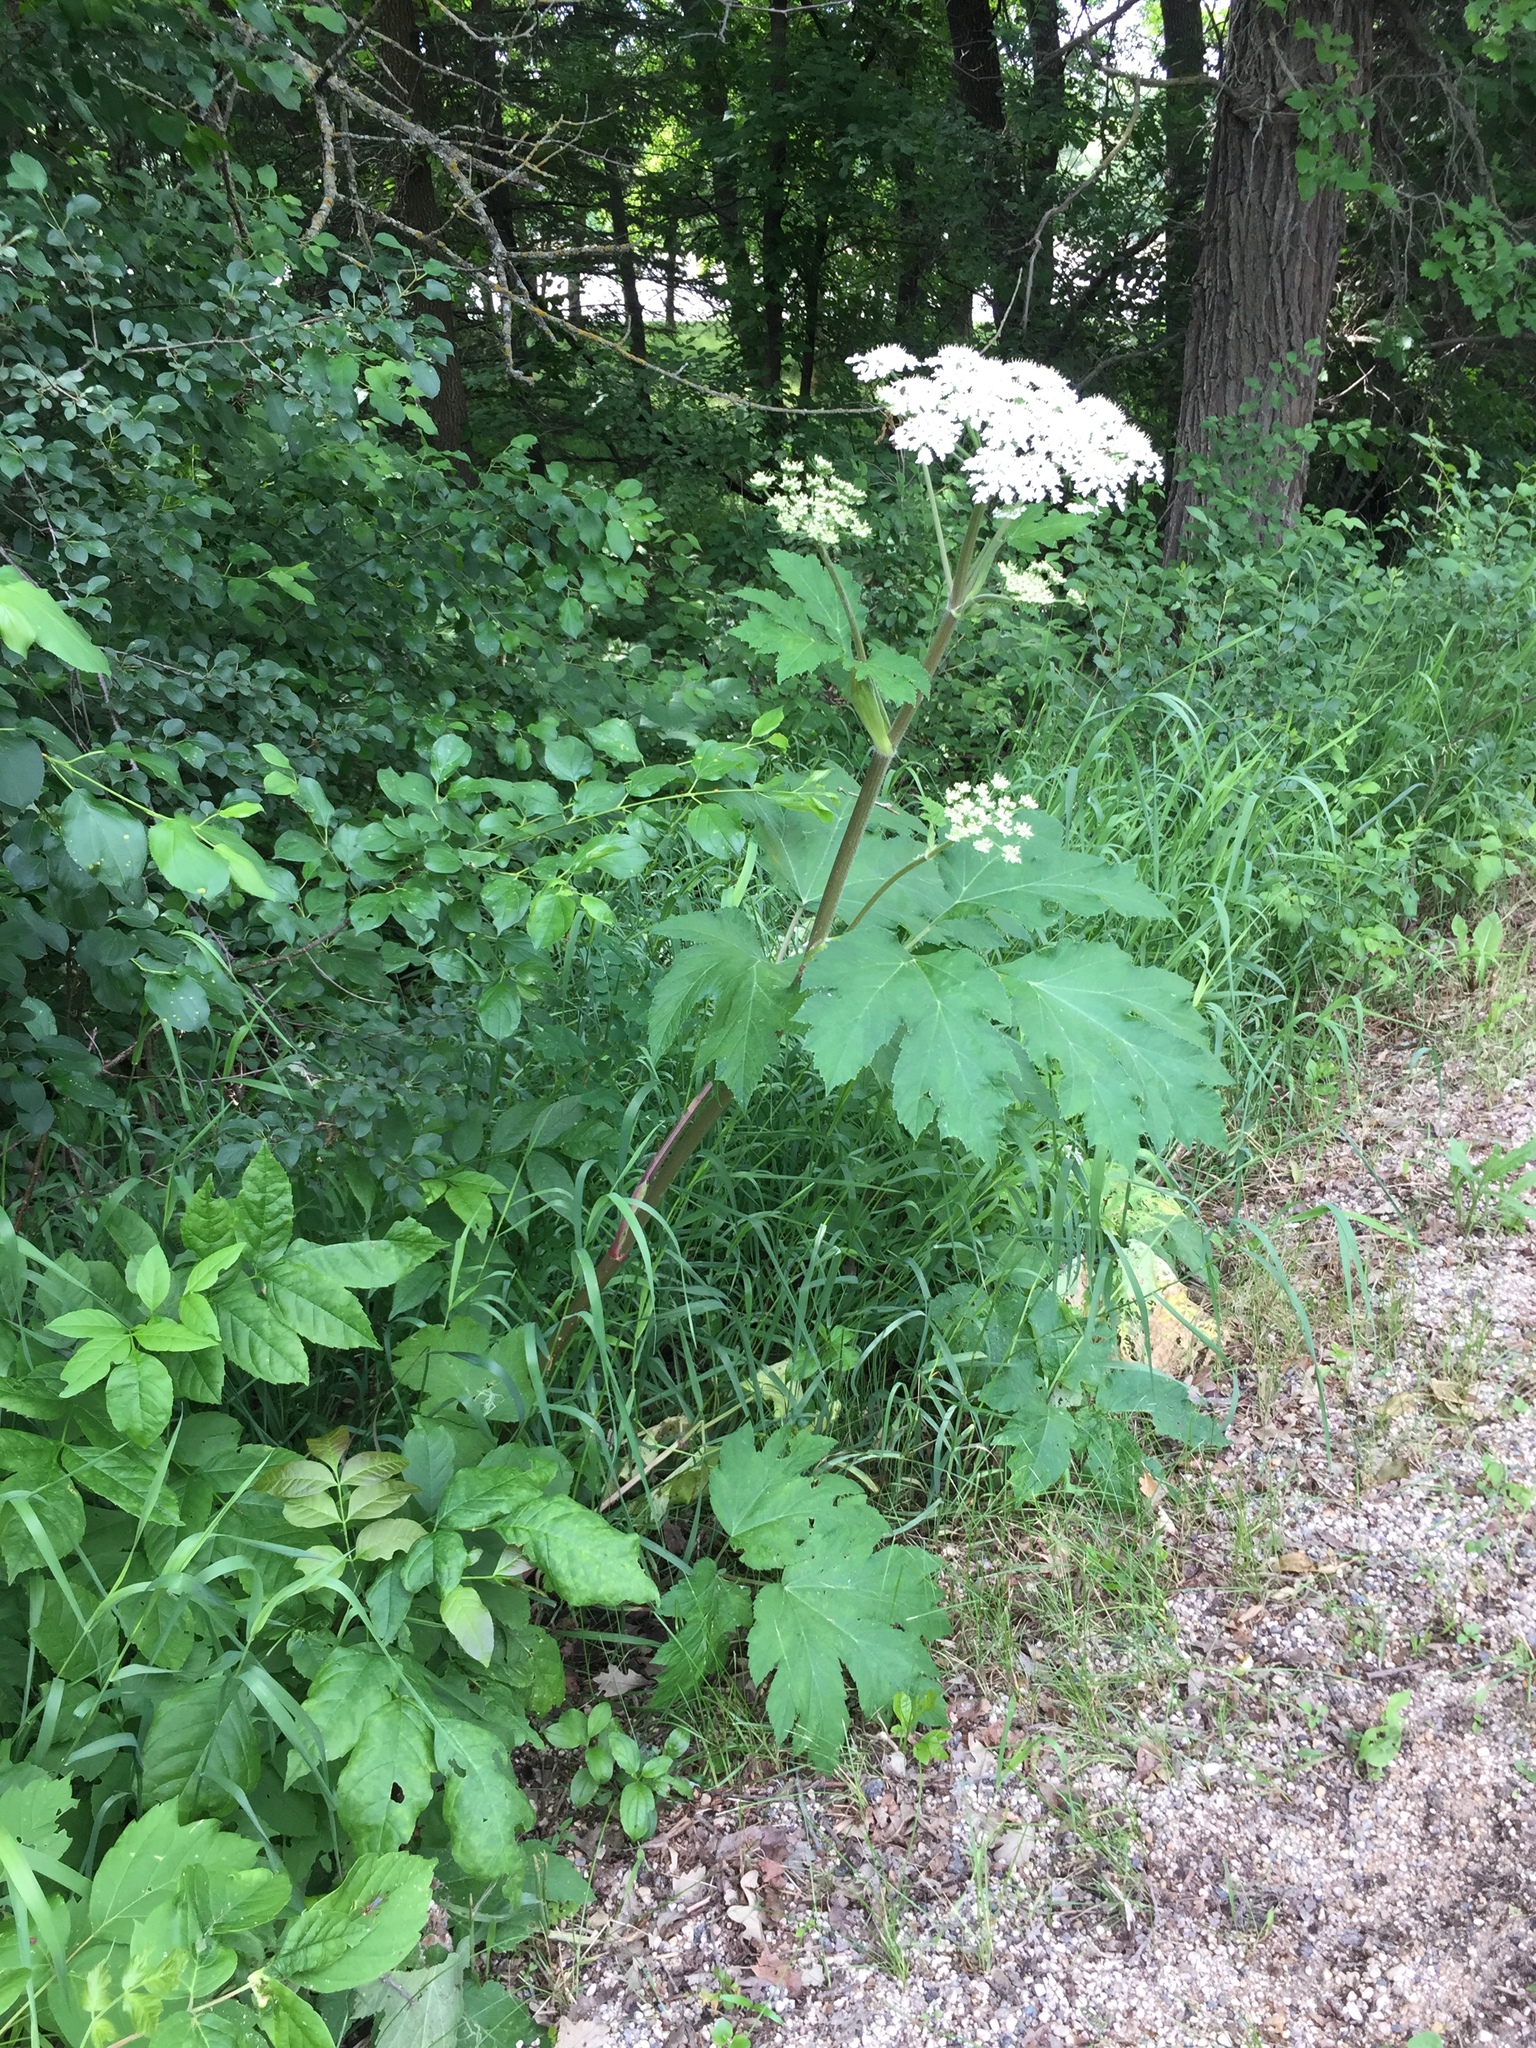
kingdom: Plantae
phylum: Tracheophyta
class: Magnoliopsida
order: Apiales
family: Apiaceae
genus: Heracleum
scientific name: Heracleum maximum
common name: American cow parsnip
